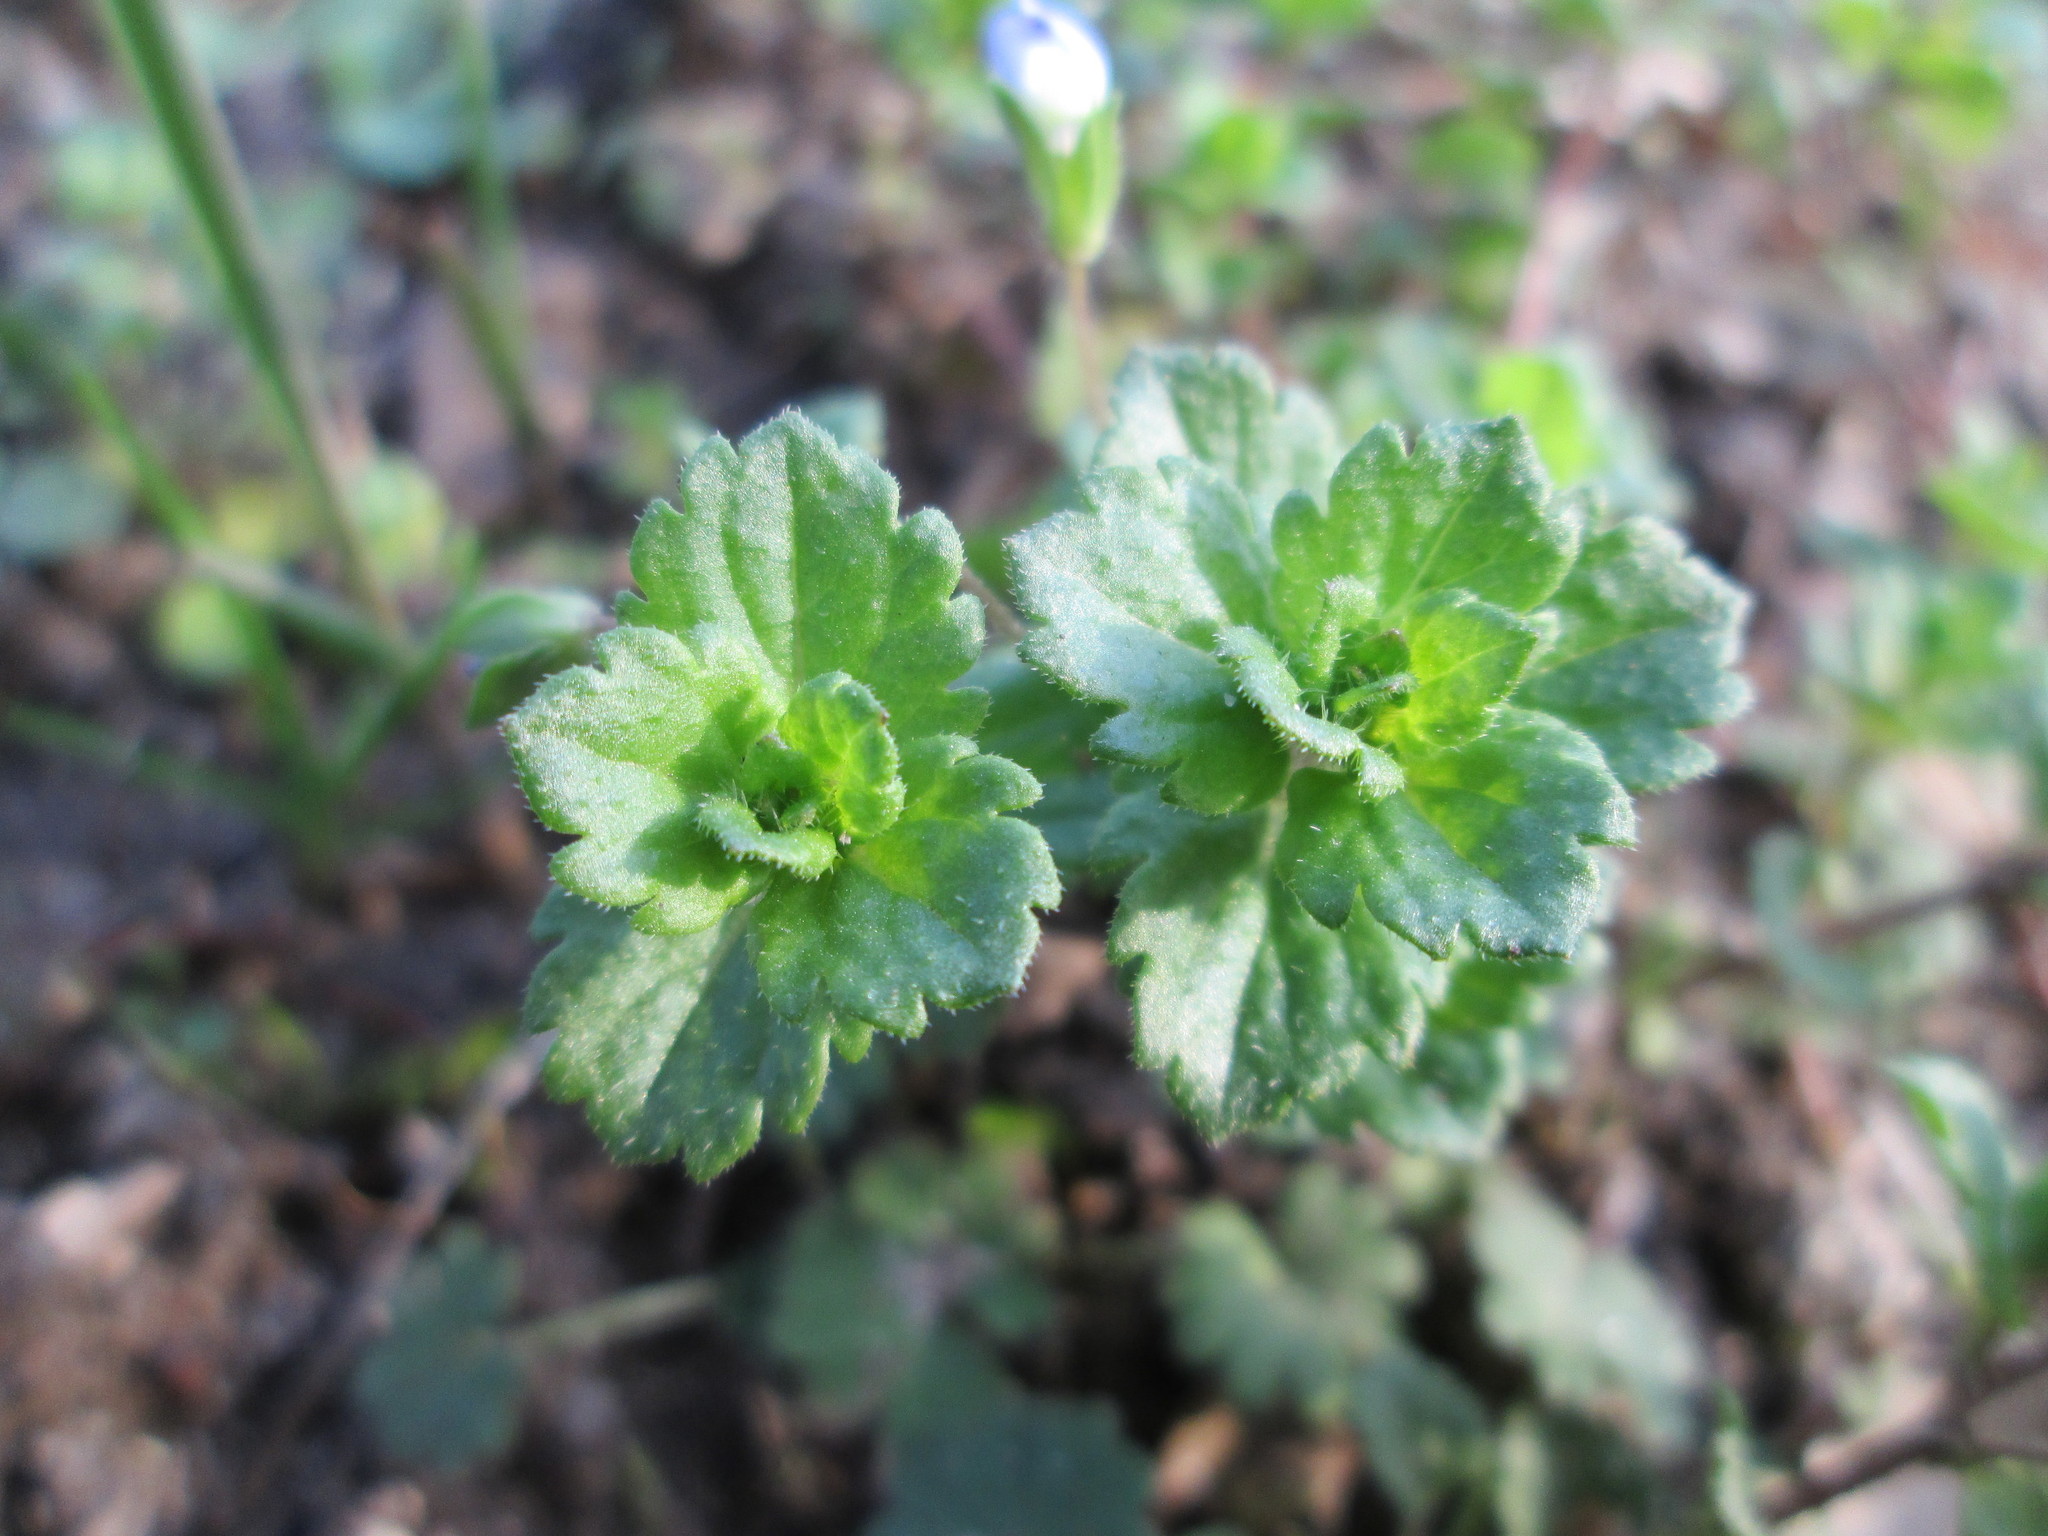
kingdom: Plantae
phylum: Tracheophyta
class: Magnoliopsida
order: Lamiales
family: Plantaginaceae
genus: Veronica
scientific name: Veronica persica
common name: Common field-speedwell
